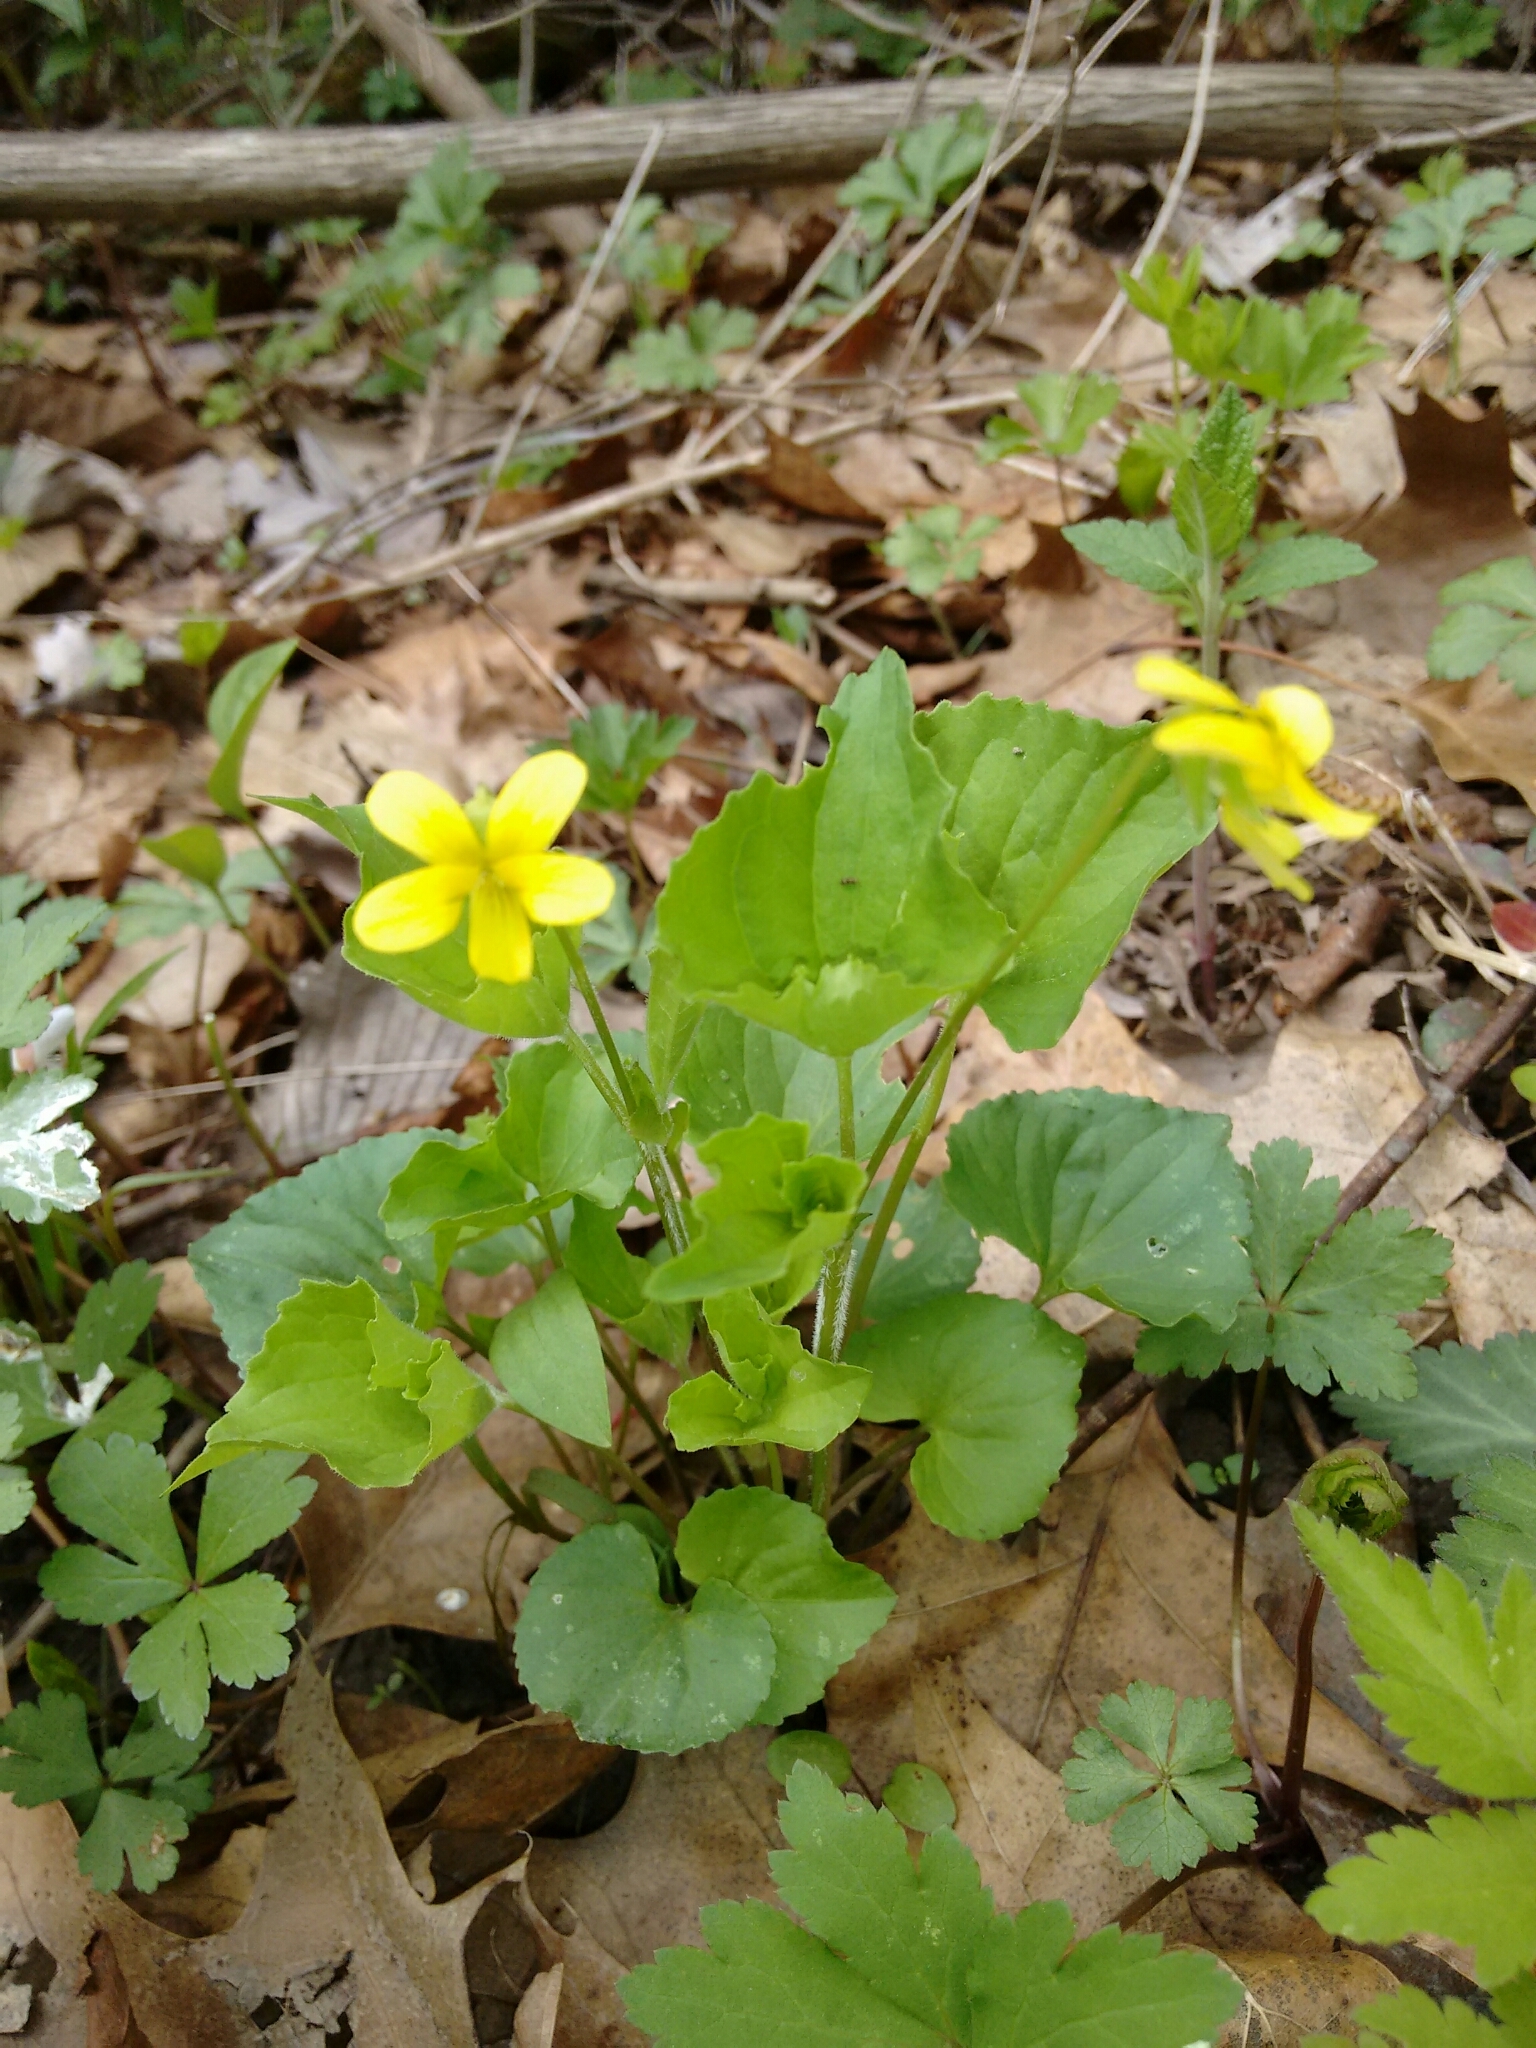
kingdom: Plantae
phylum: Tracheophyta
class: Magnoliopsida
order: Malpighiales
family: Violaceae
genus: Viola
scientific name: Viola eriocarpa
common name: Smooth yellow violet
